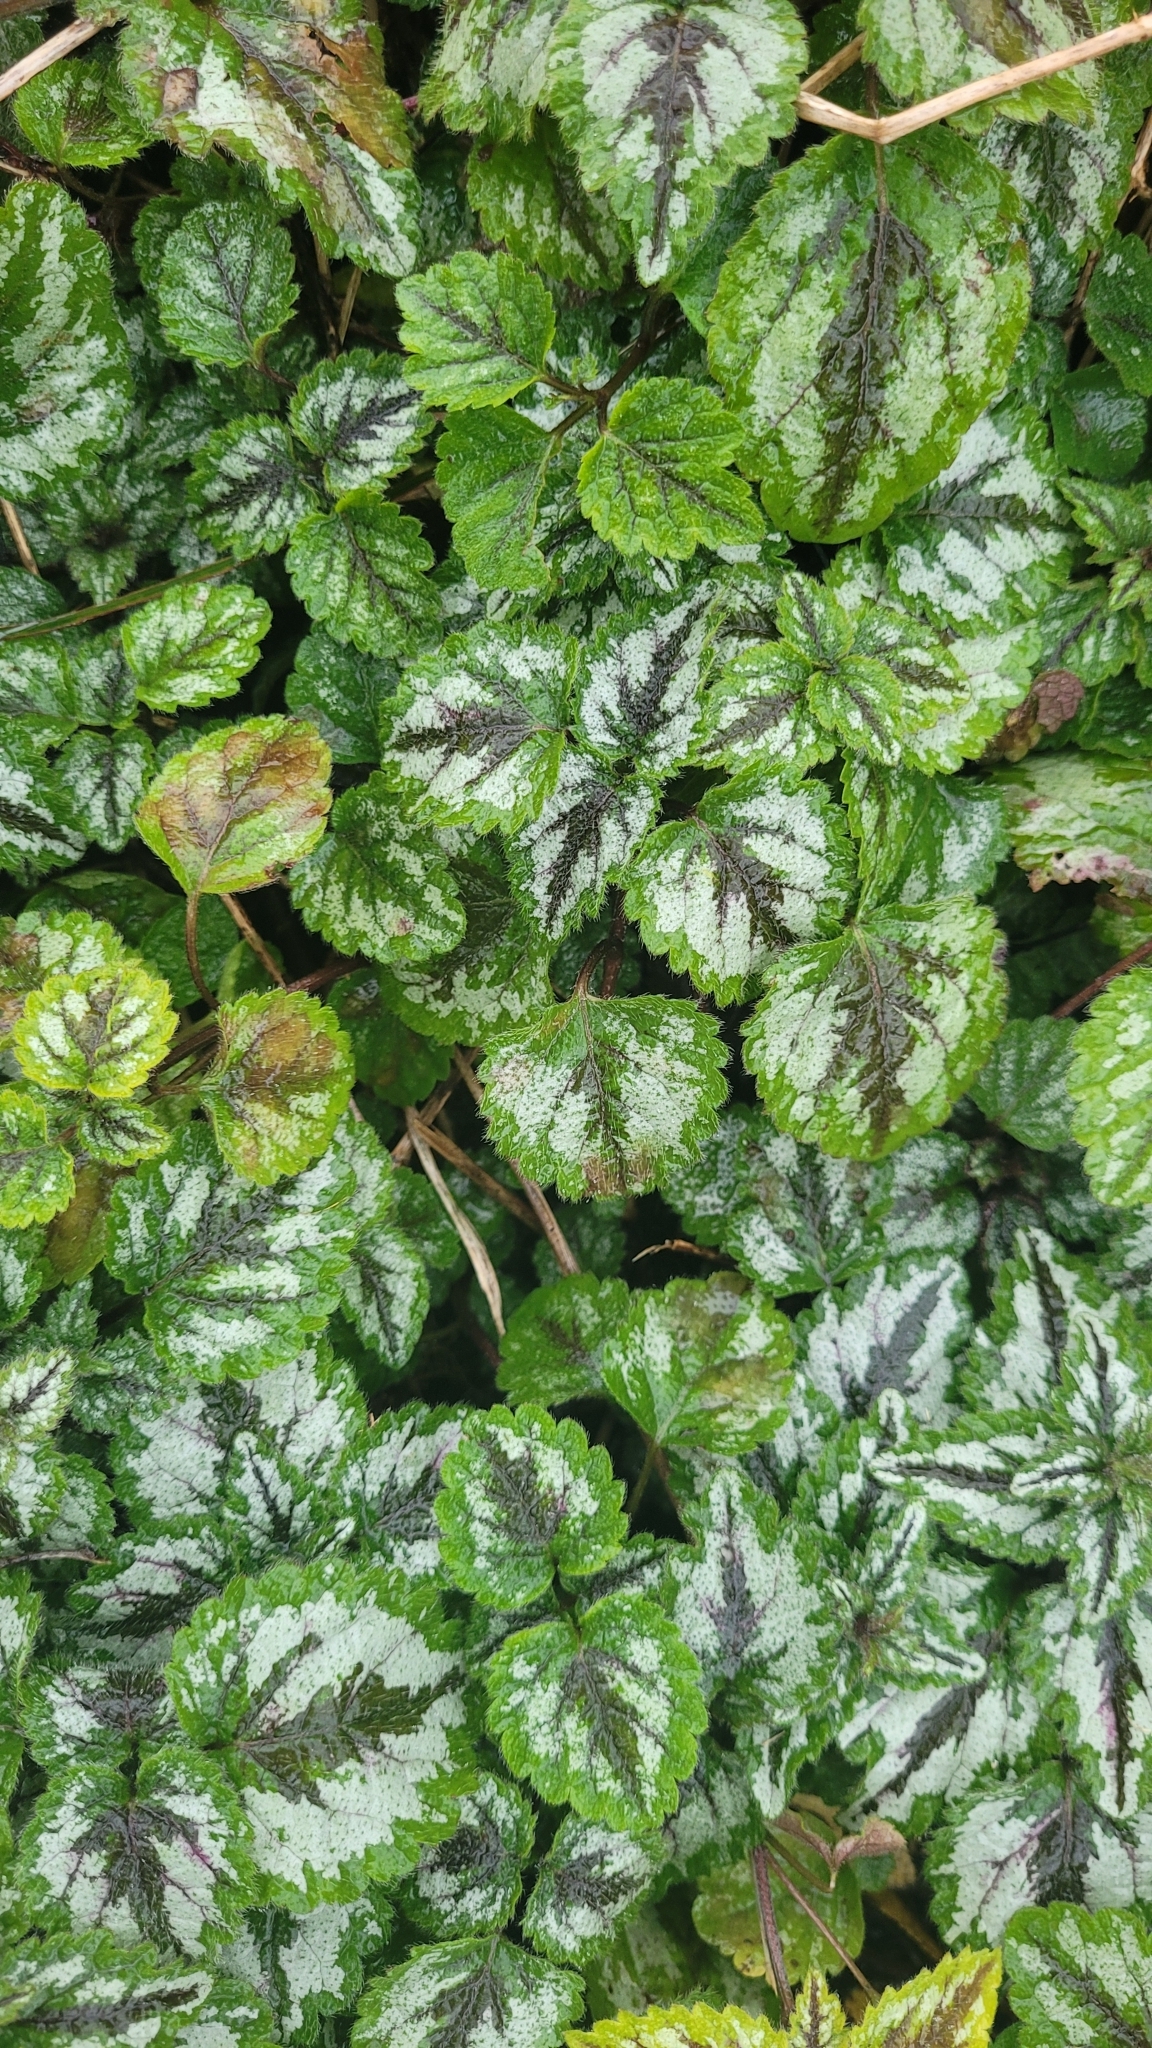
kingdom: Plantae
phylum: Tracheophyta
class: Magnoliopsida
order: Lamiales
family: Lamiaceae
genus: Lamium
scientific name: Lamium galeobdolon
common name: Yellow archangel
